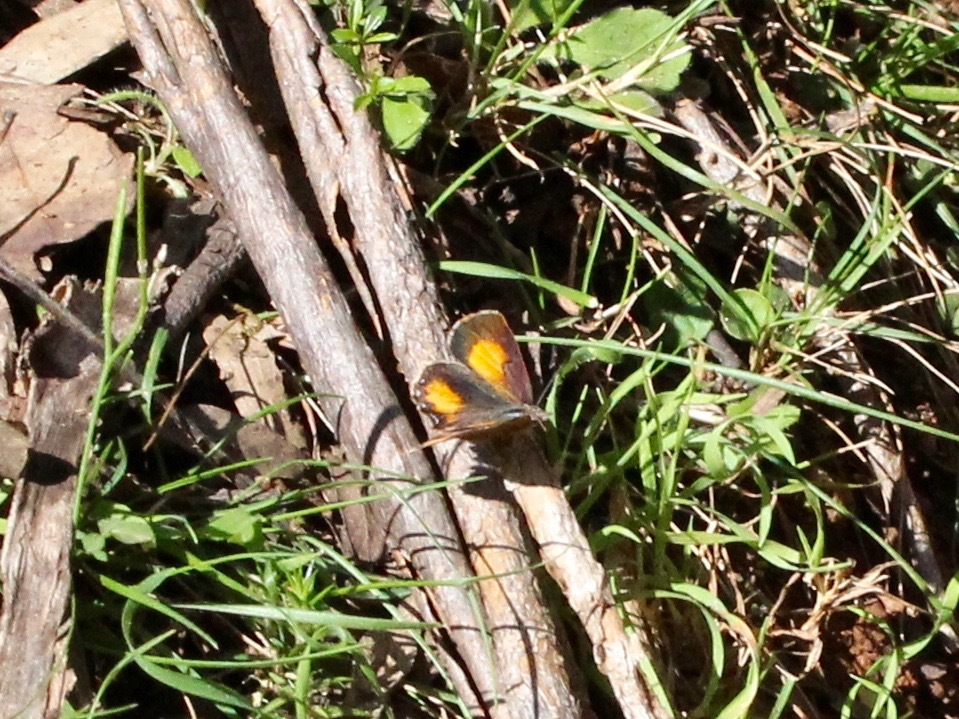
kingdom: Animalia
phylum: Arthropoda
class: Insecta
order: Lepidoptera
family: Lycaenidae
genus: Paralucia
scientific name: Paralucia aurifer
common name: Bright copper
